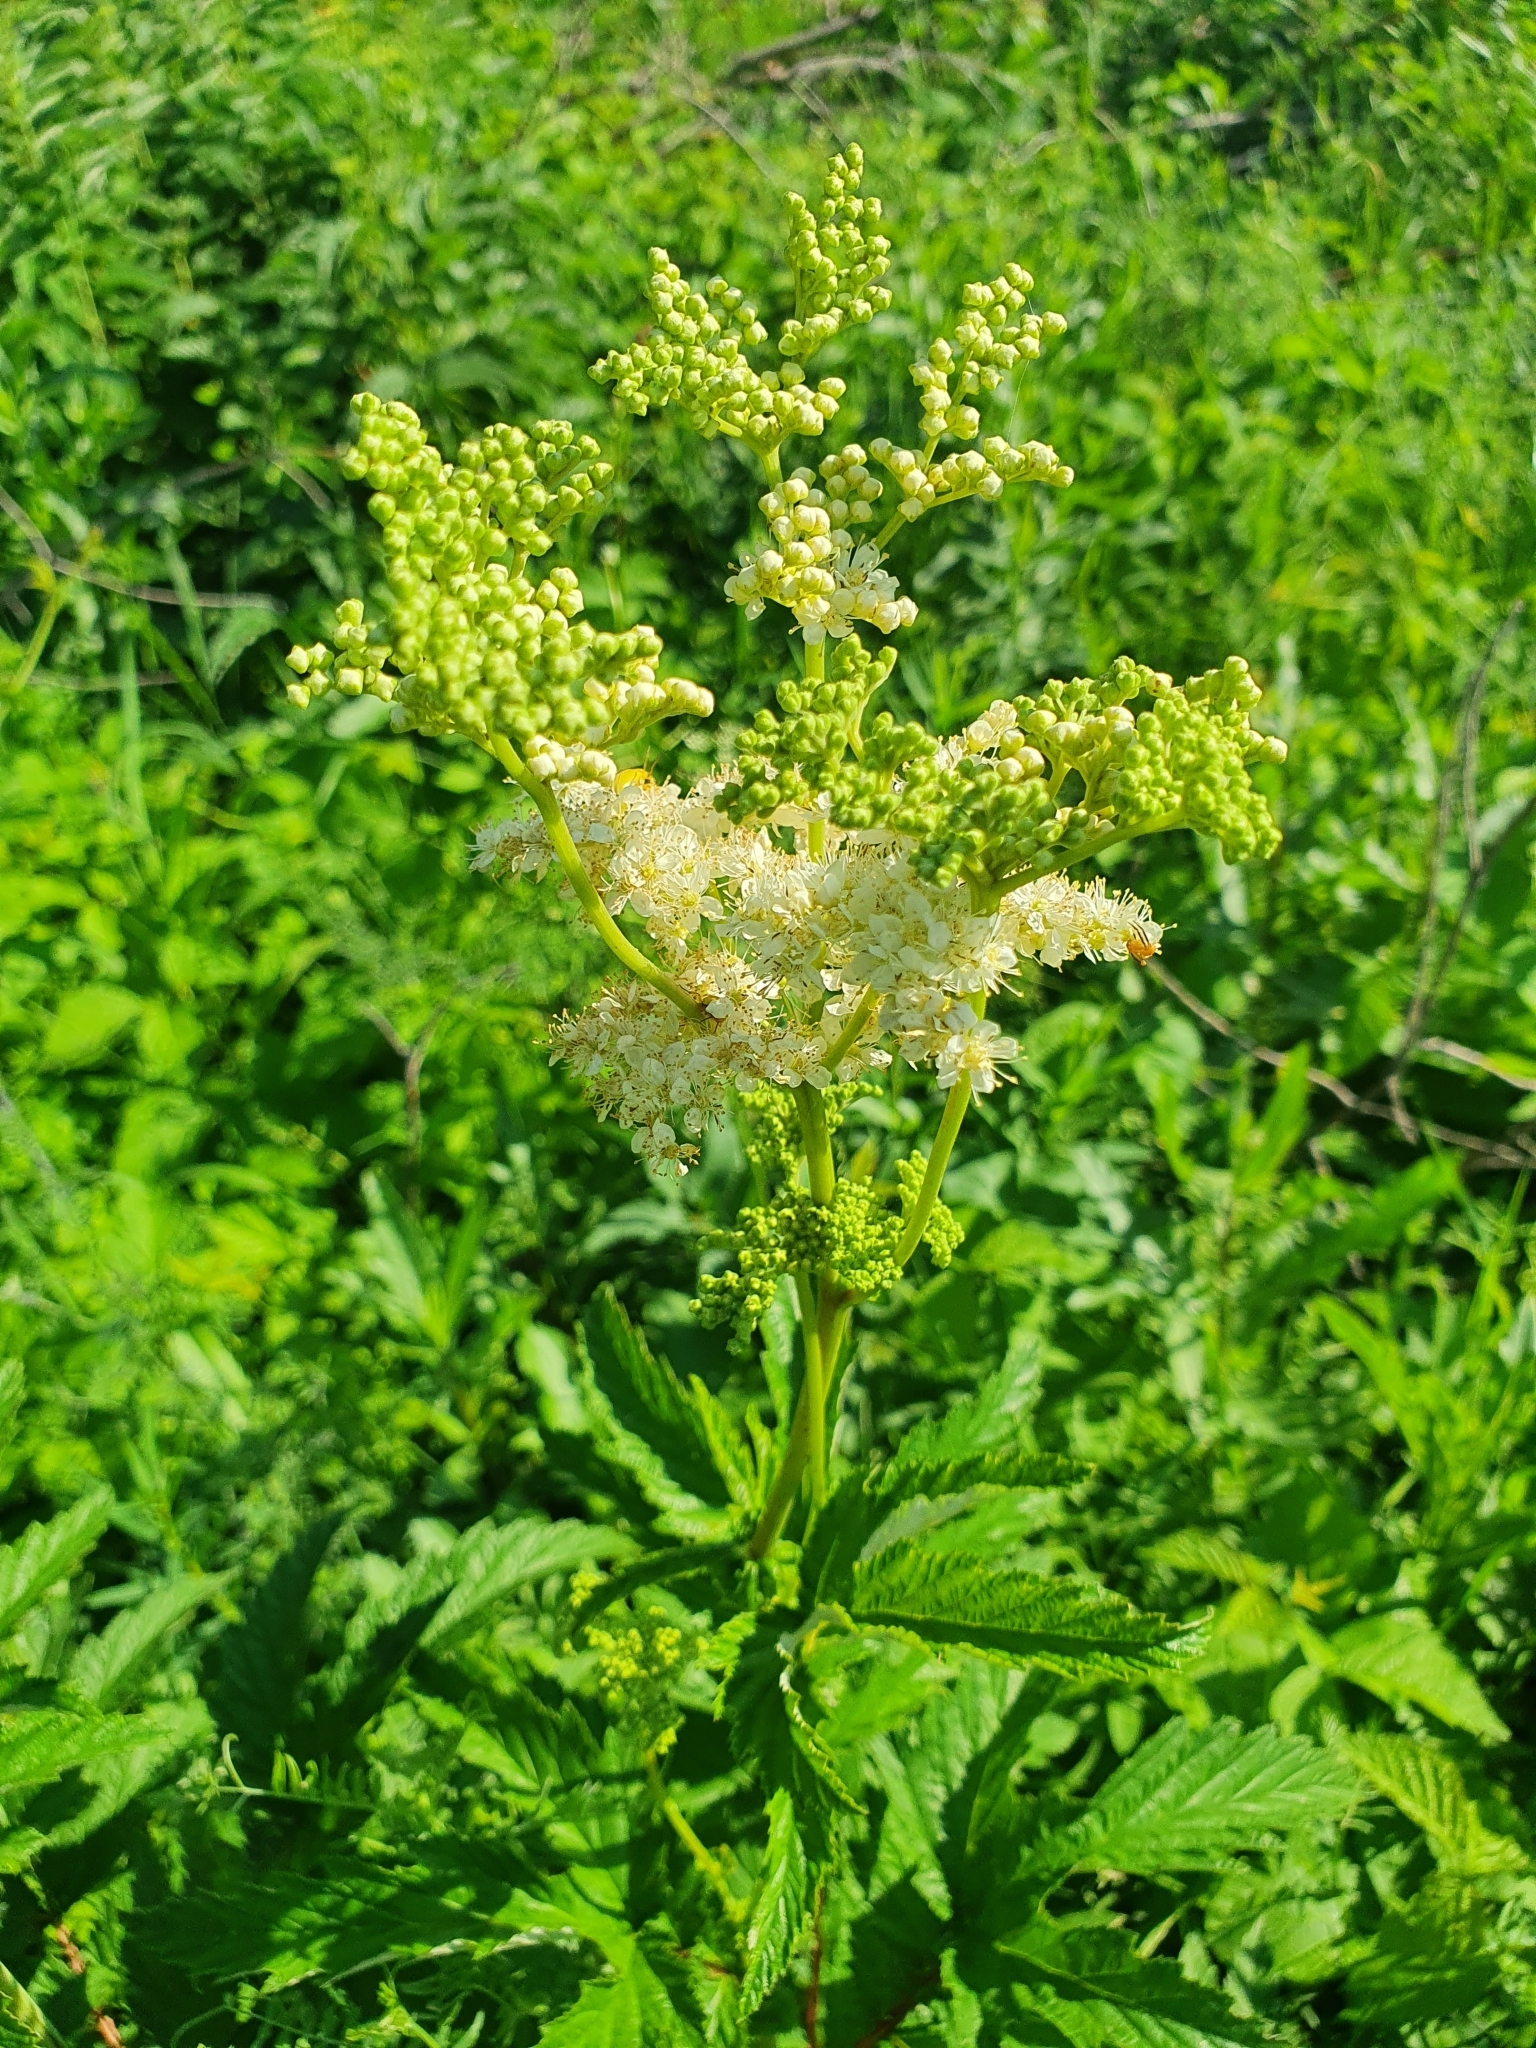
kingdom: Plantae
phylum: Tracheophyta
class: Magnoliopsida
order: Rosales
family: Rosaceae
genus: Filipendula
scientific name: Filipendula ulmaria
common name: Meadowsweet
